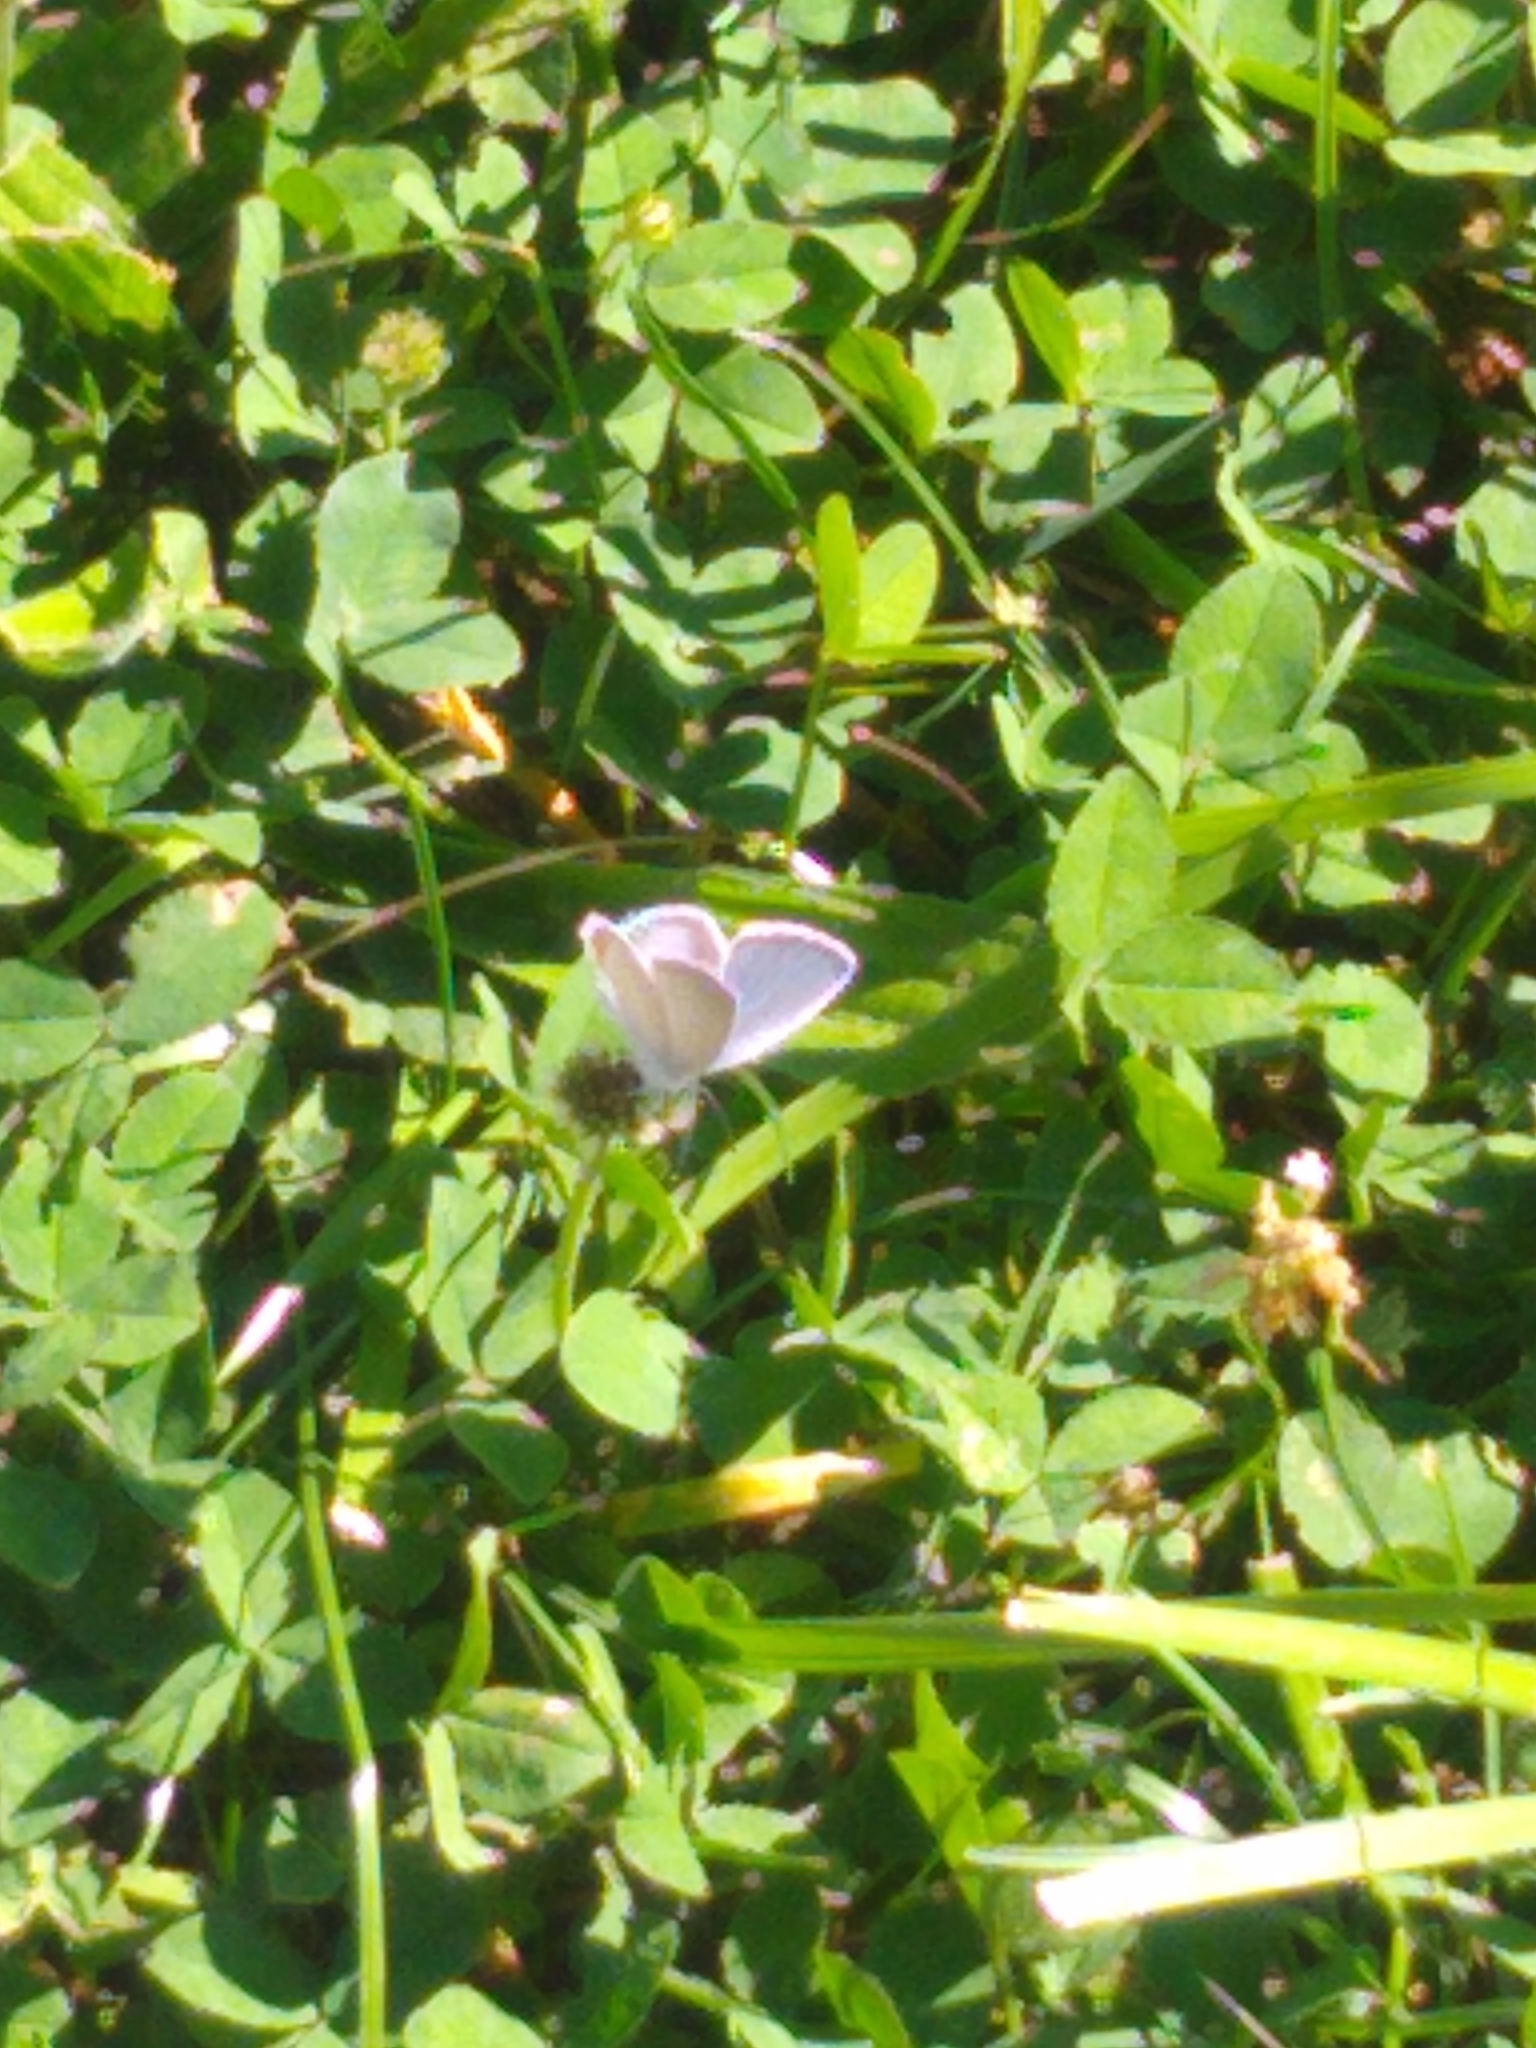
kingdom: Animalia
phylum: Arthropoda
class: Insecta
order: Lepidoptera
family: Lycaenidae
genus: Elkalyce
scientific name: Elkalyce comyntas
